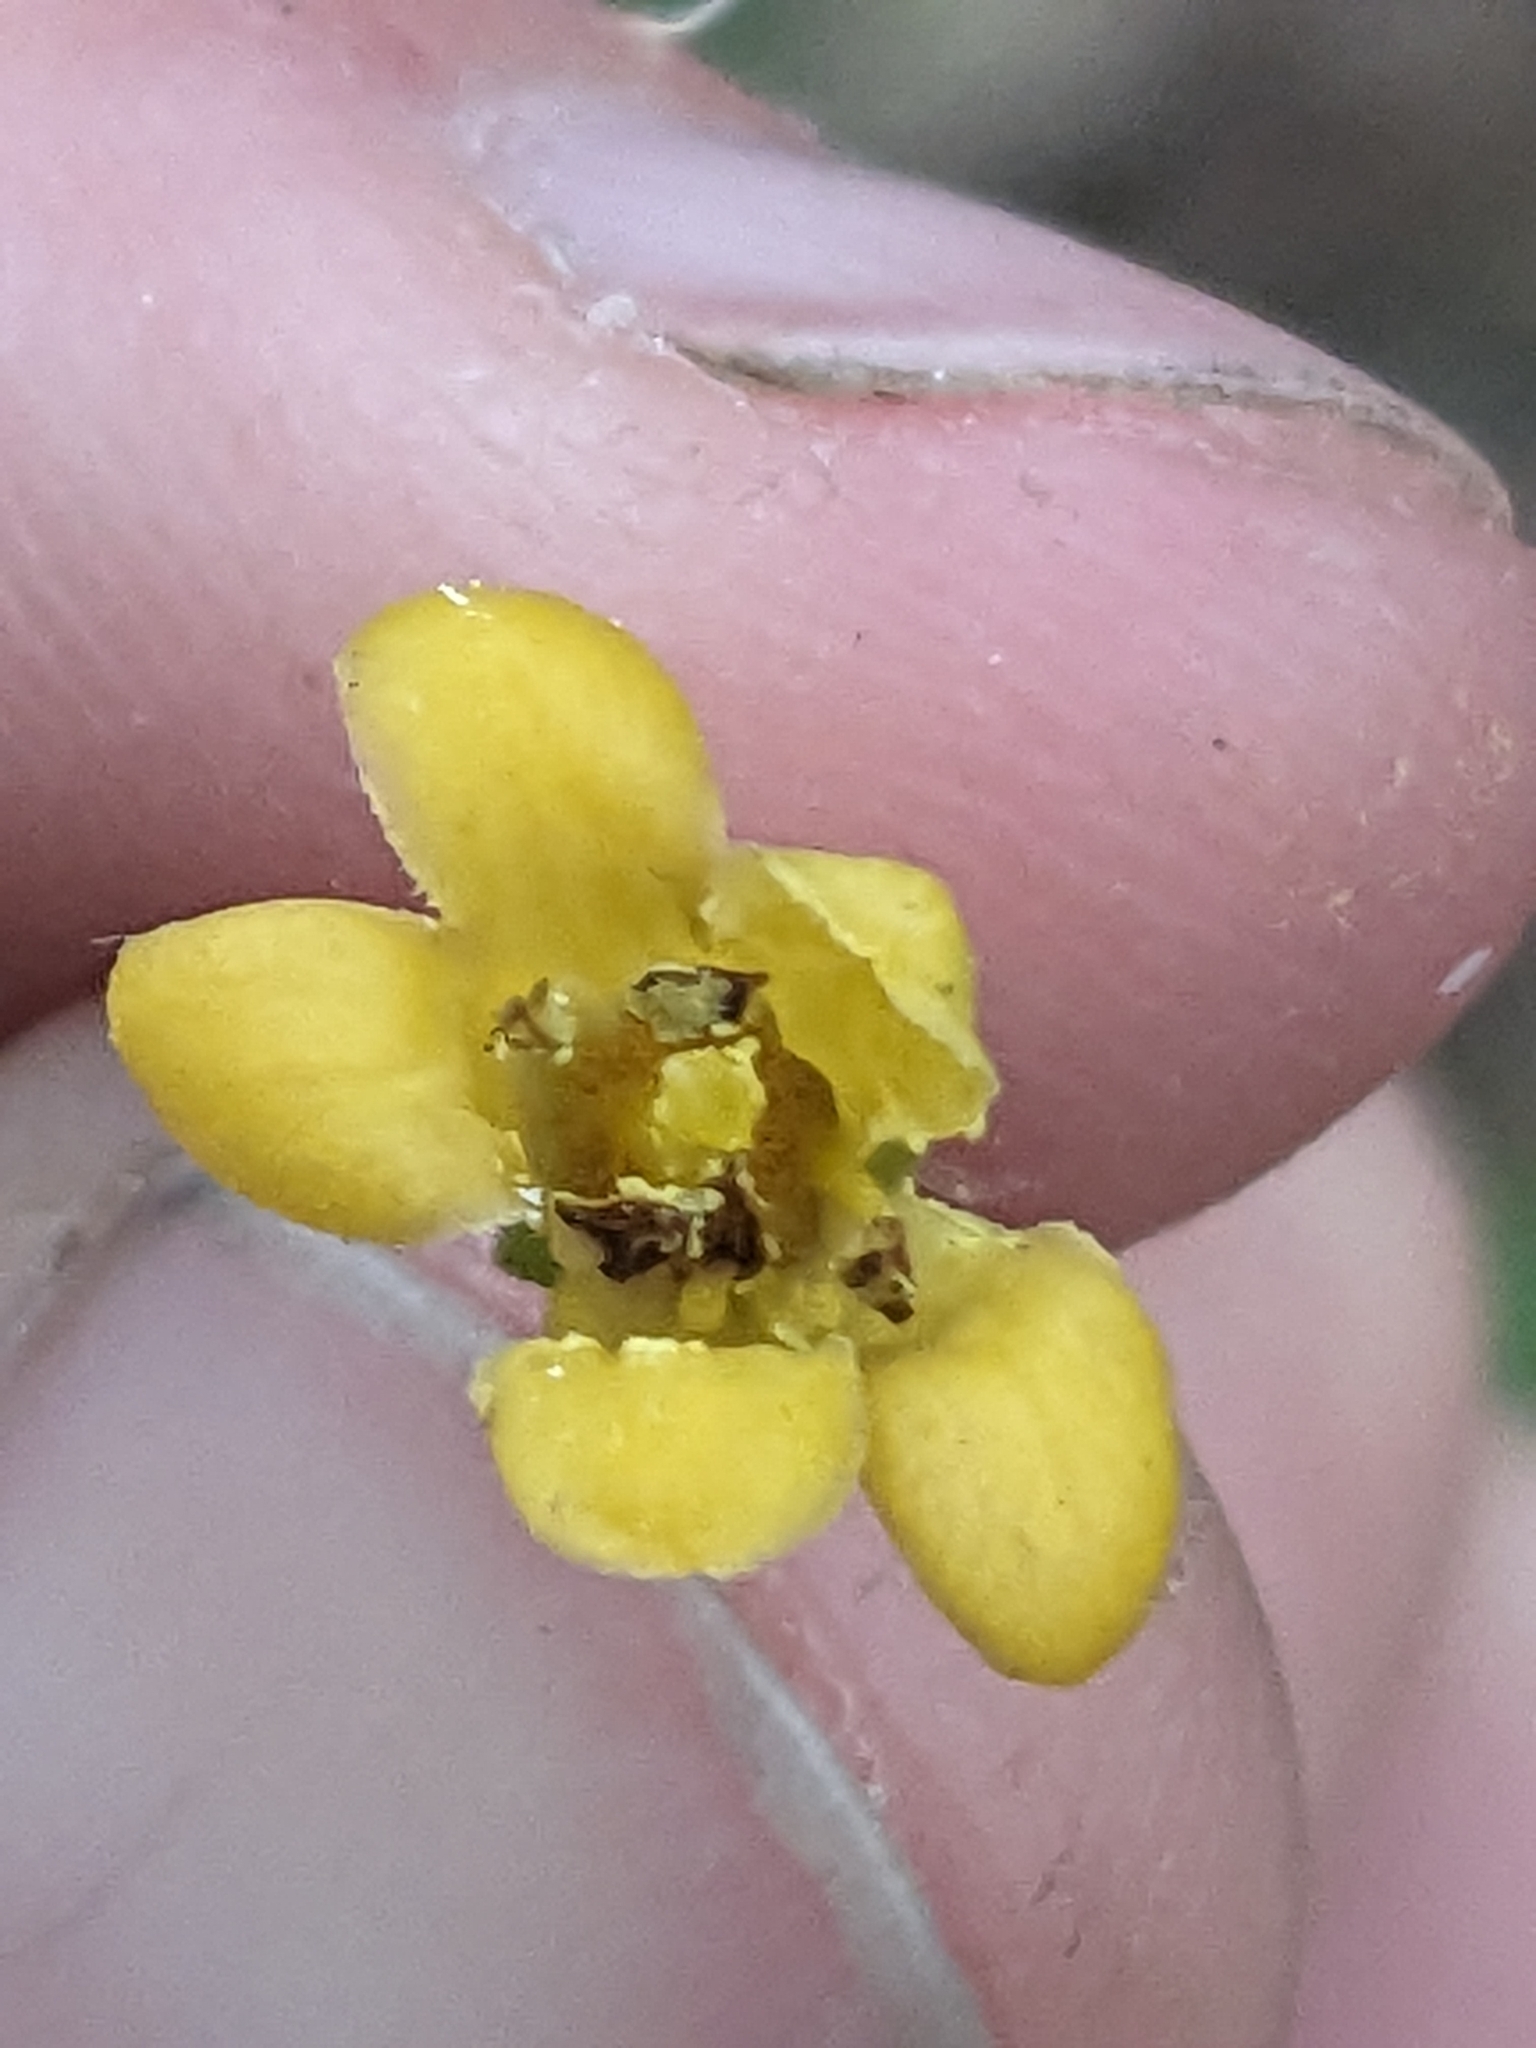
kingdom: Plantae
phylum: Tracheophyta
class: Magnoliopsida
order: Apiales
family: Pittosporaceae
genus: Pittosporum
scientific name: Pittosporum revolutum
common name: Brisbane-laurel
